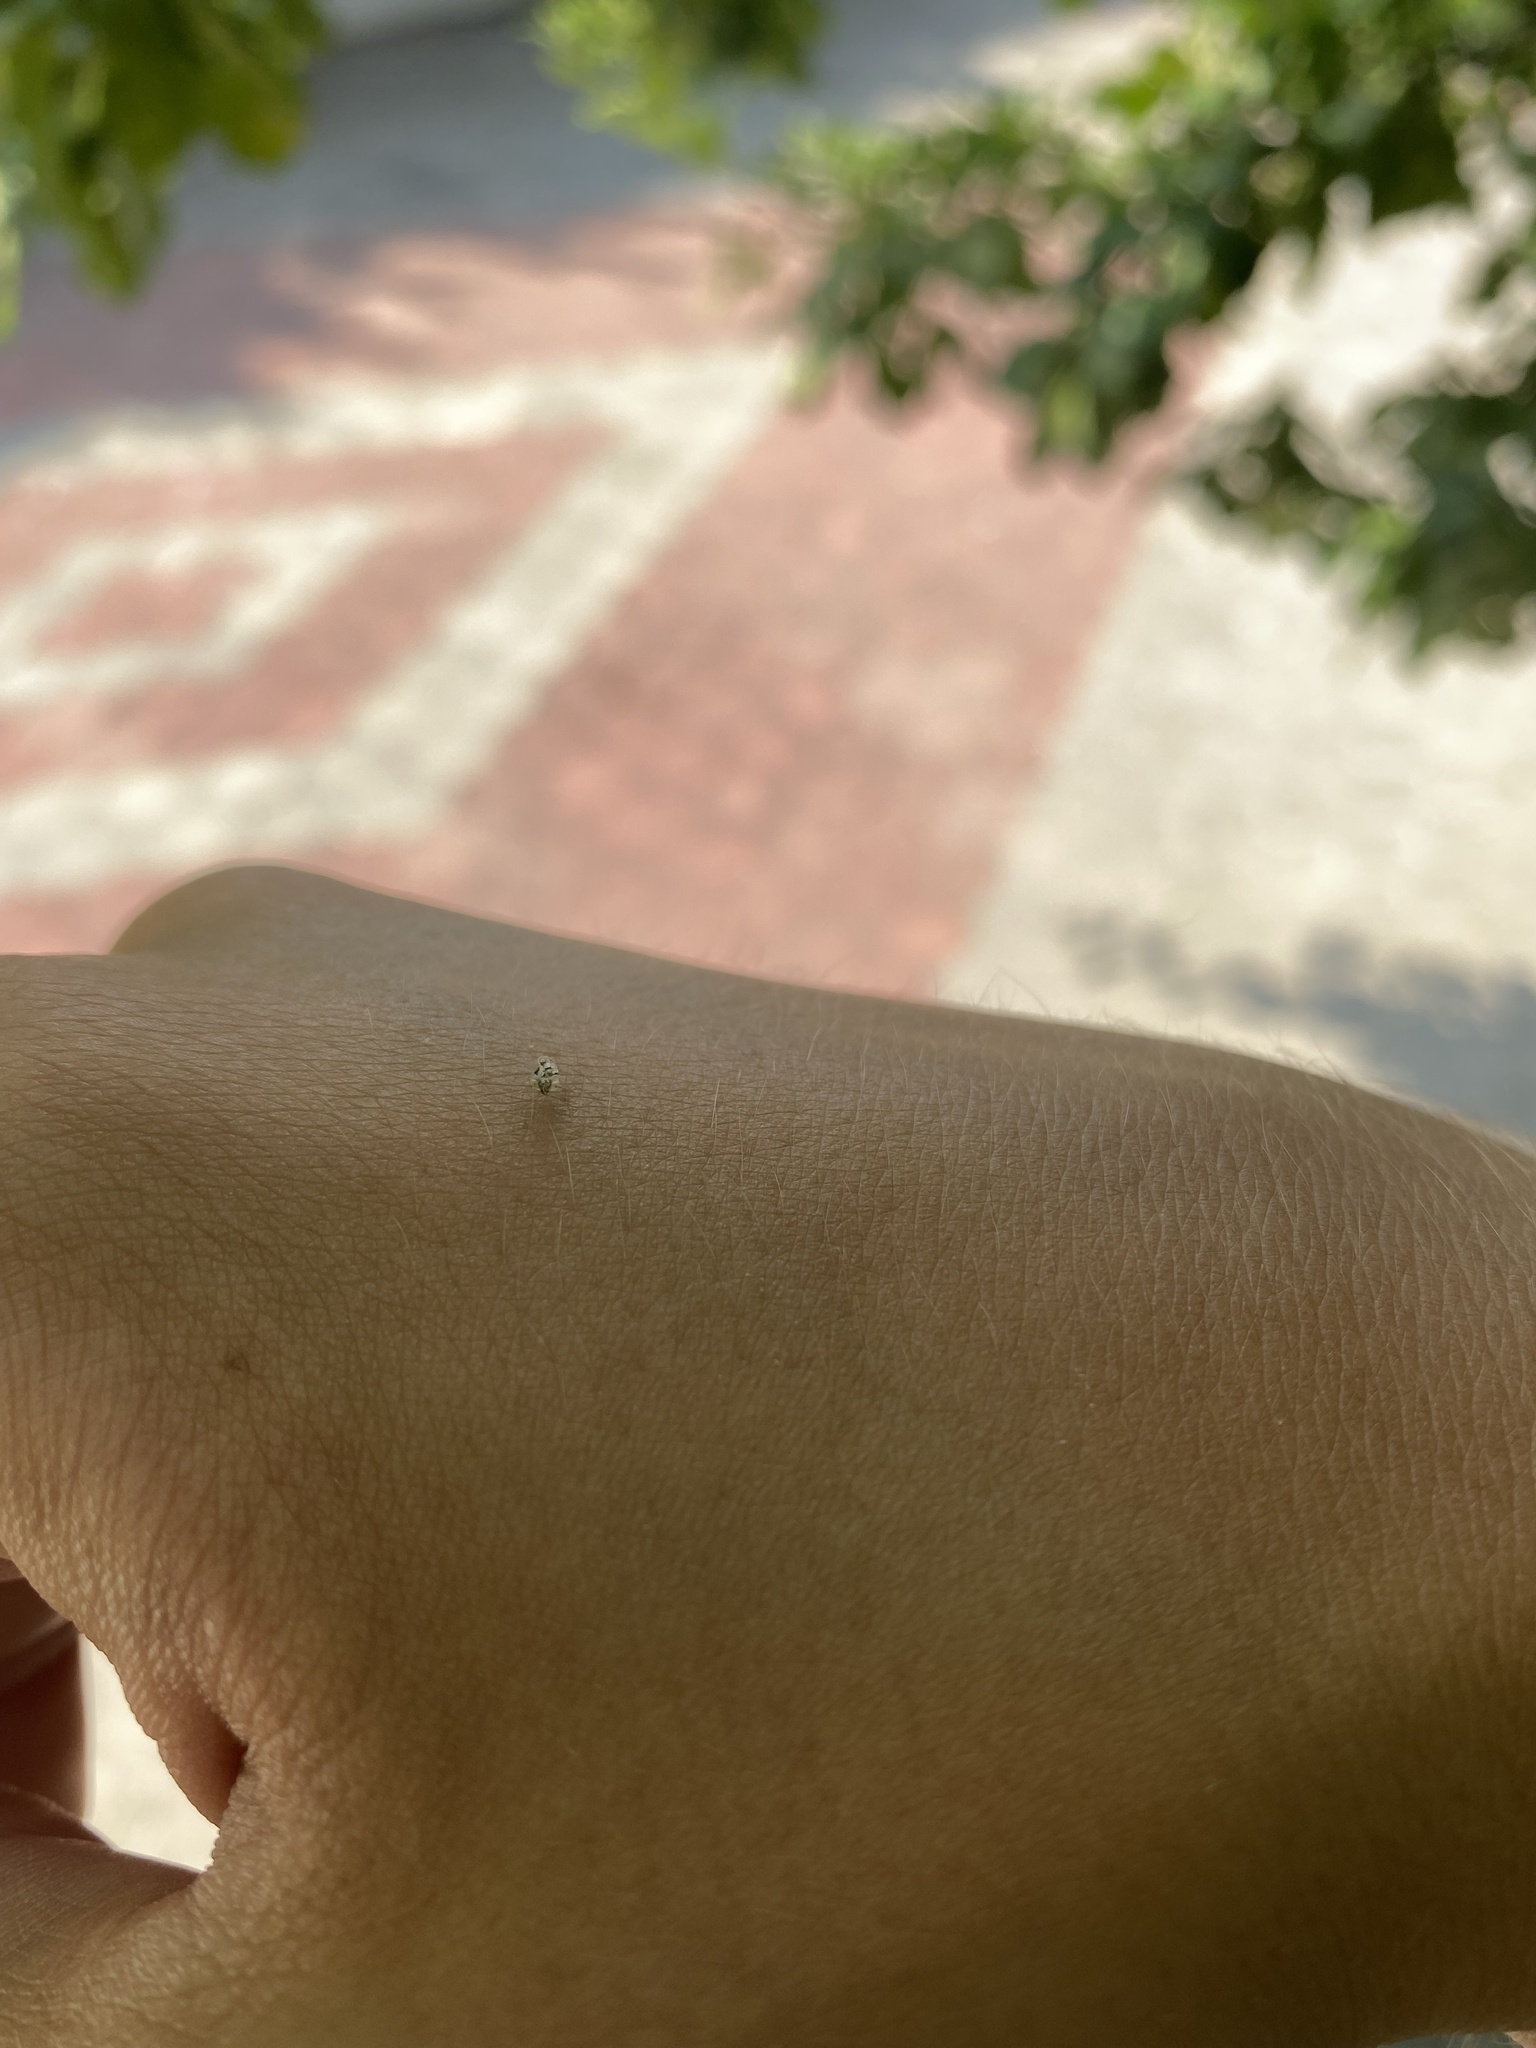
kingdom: Animalia
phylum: Arthropoda
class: Insecta
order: Hemiptera
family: Tingidae
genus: Corythucha
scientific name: Corythucha arcuata
